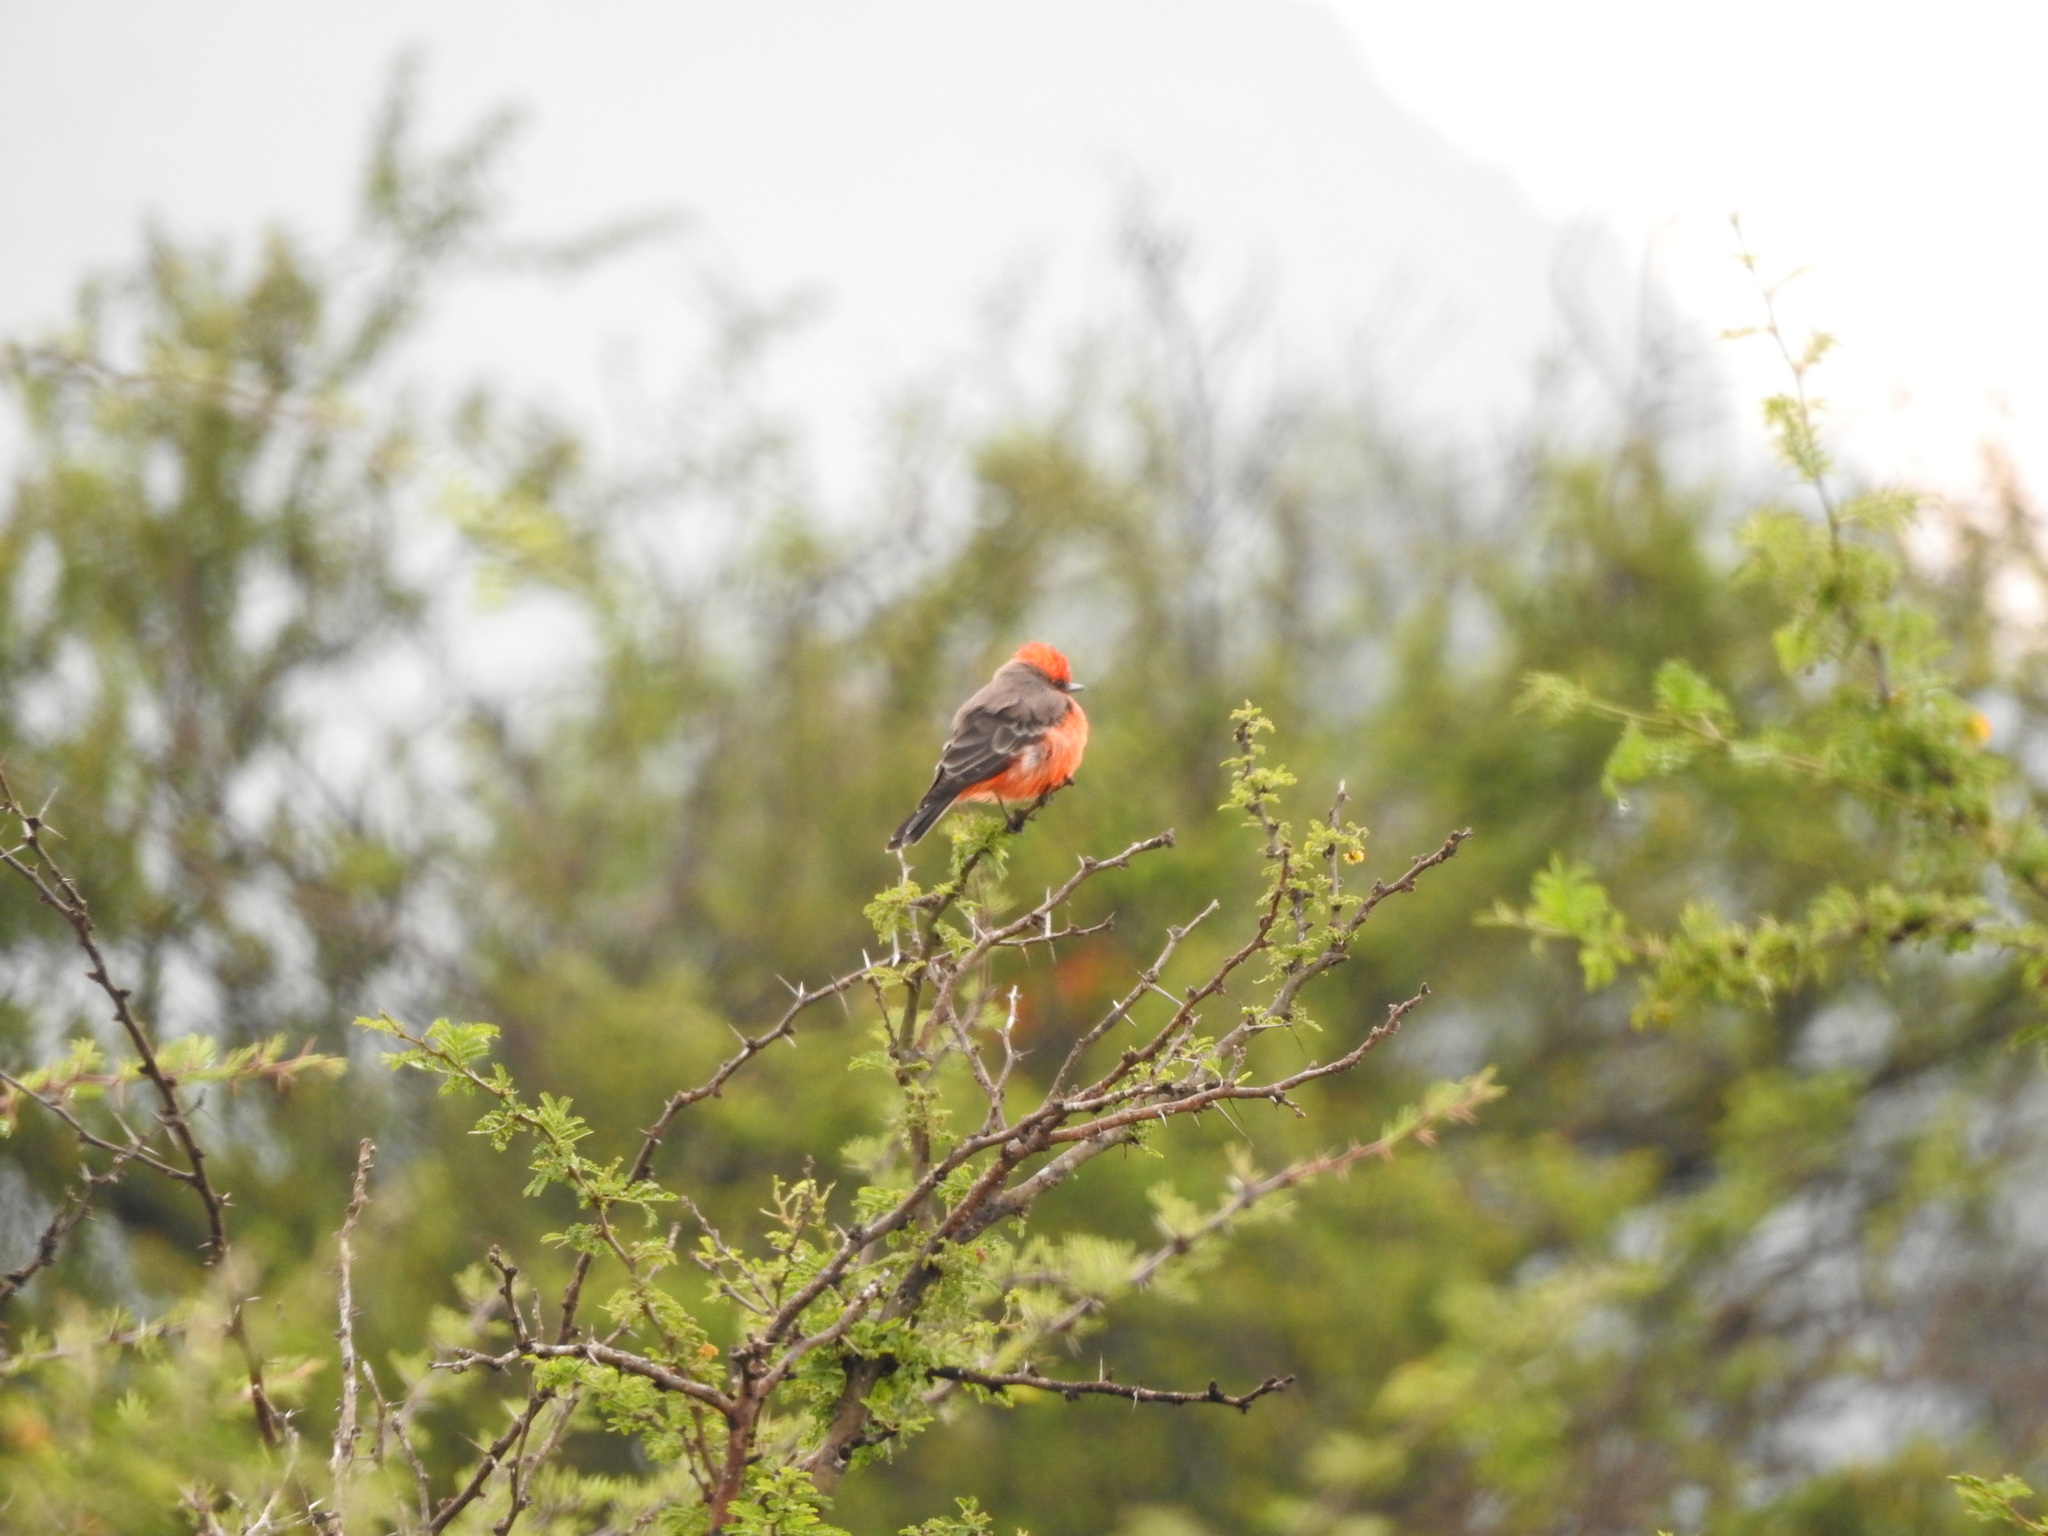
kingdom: Animalia
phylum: Chordata
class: Aves
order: Passeriformes
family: Tyrannidae
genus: Pyrocephalus
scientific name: Pyrocephalus rubinus
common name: Vermilion flycatcher
